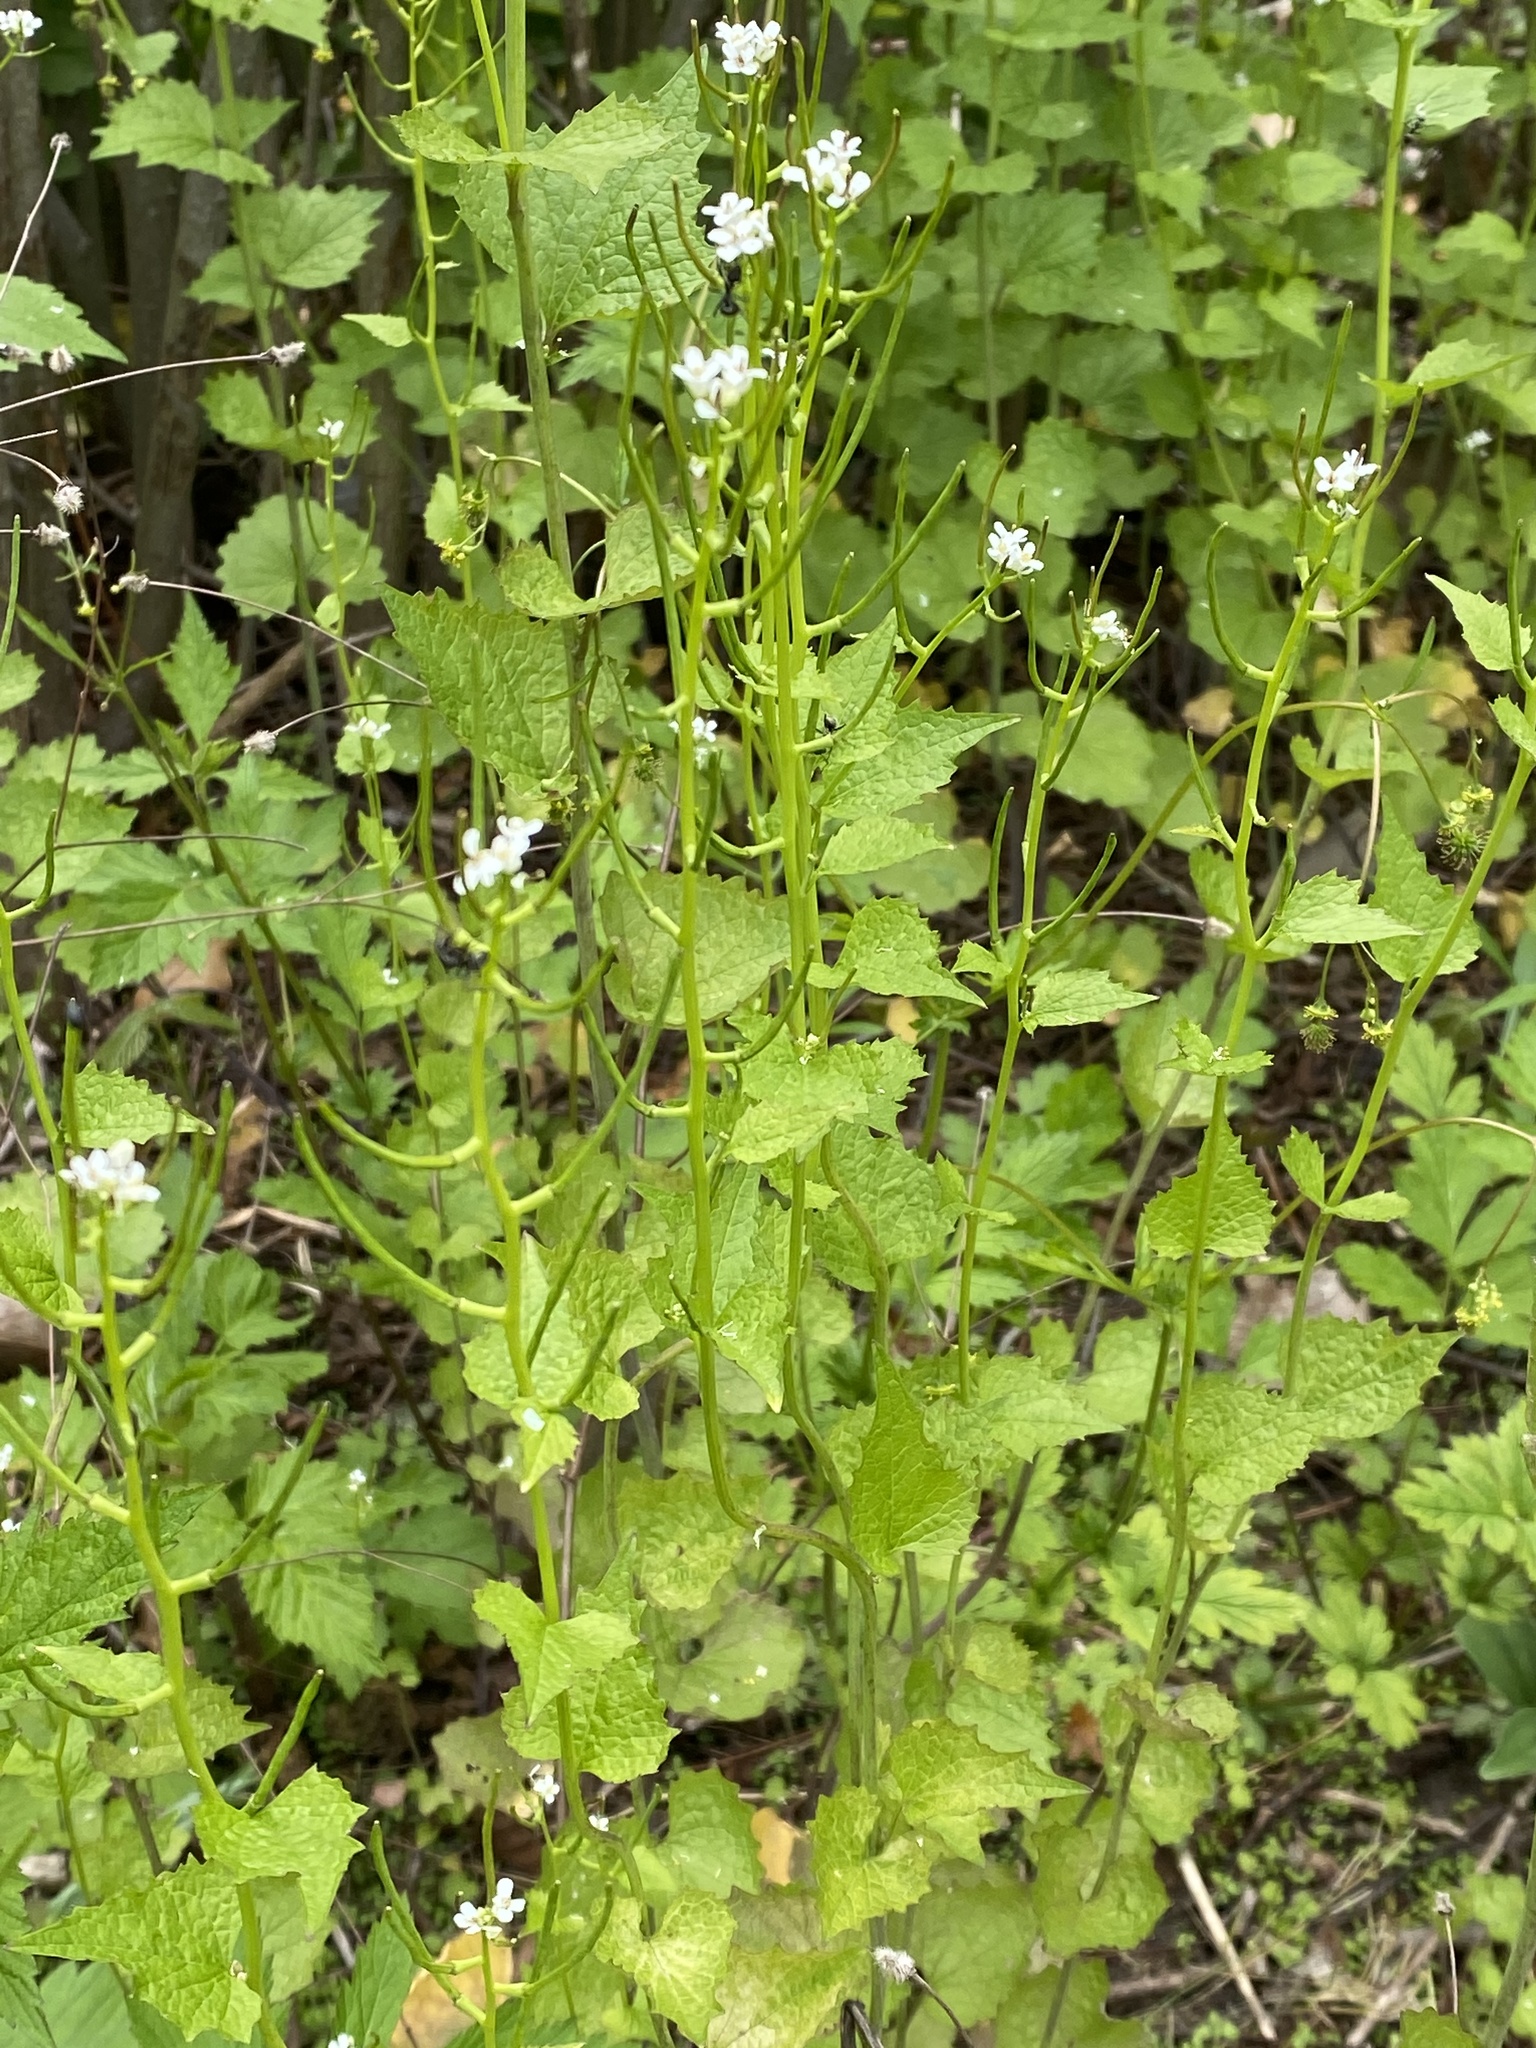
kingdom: Plantae
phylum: Tracheophyta
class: Magnoliopsida
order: Brassicales
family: Brassicaceae
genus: Alliaria
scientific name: Alliaria petiolata
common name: Garlic mustard
